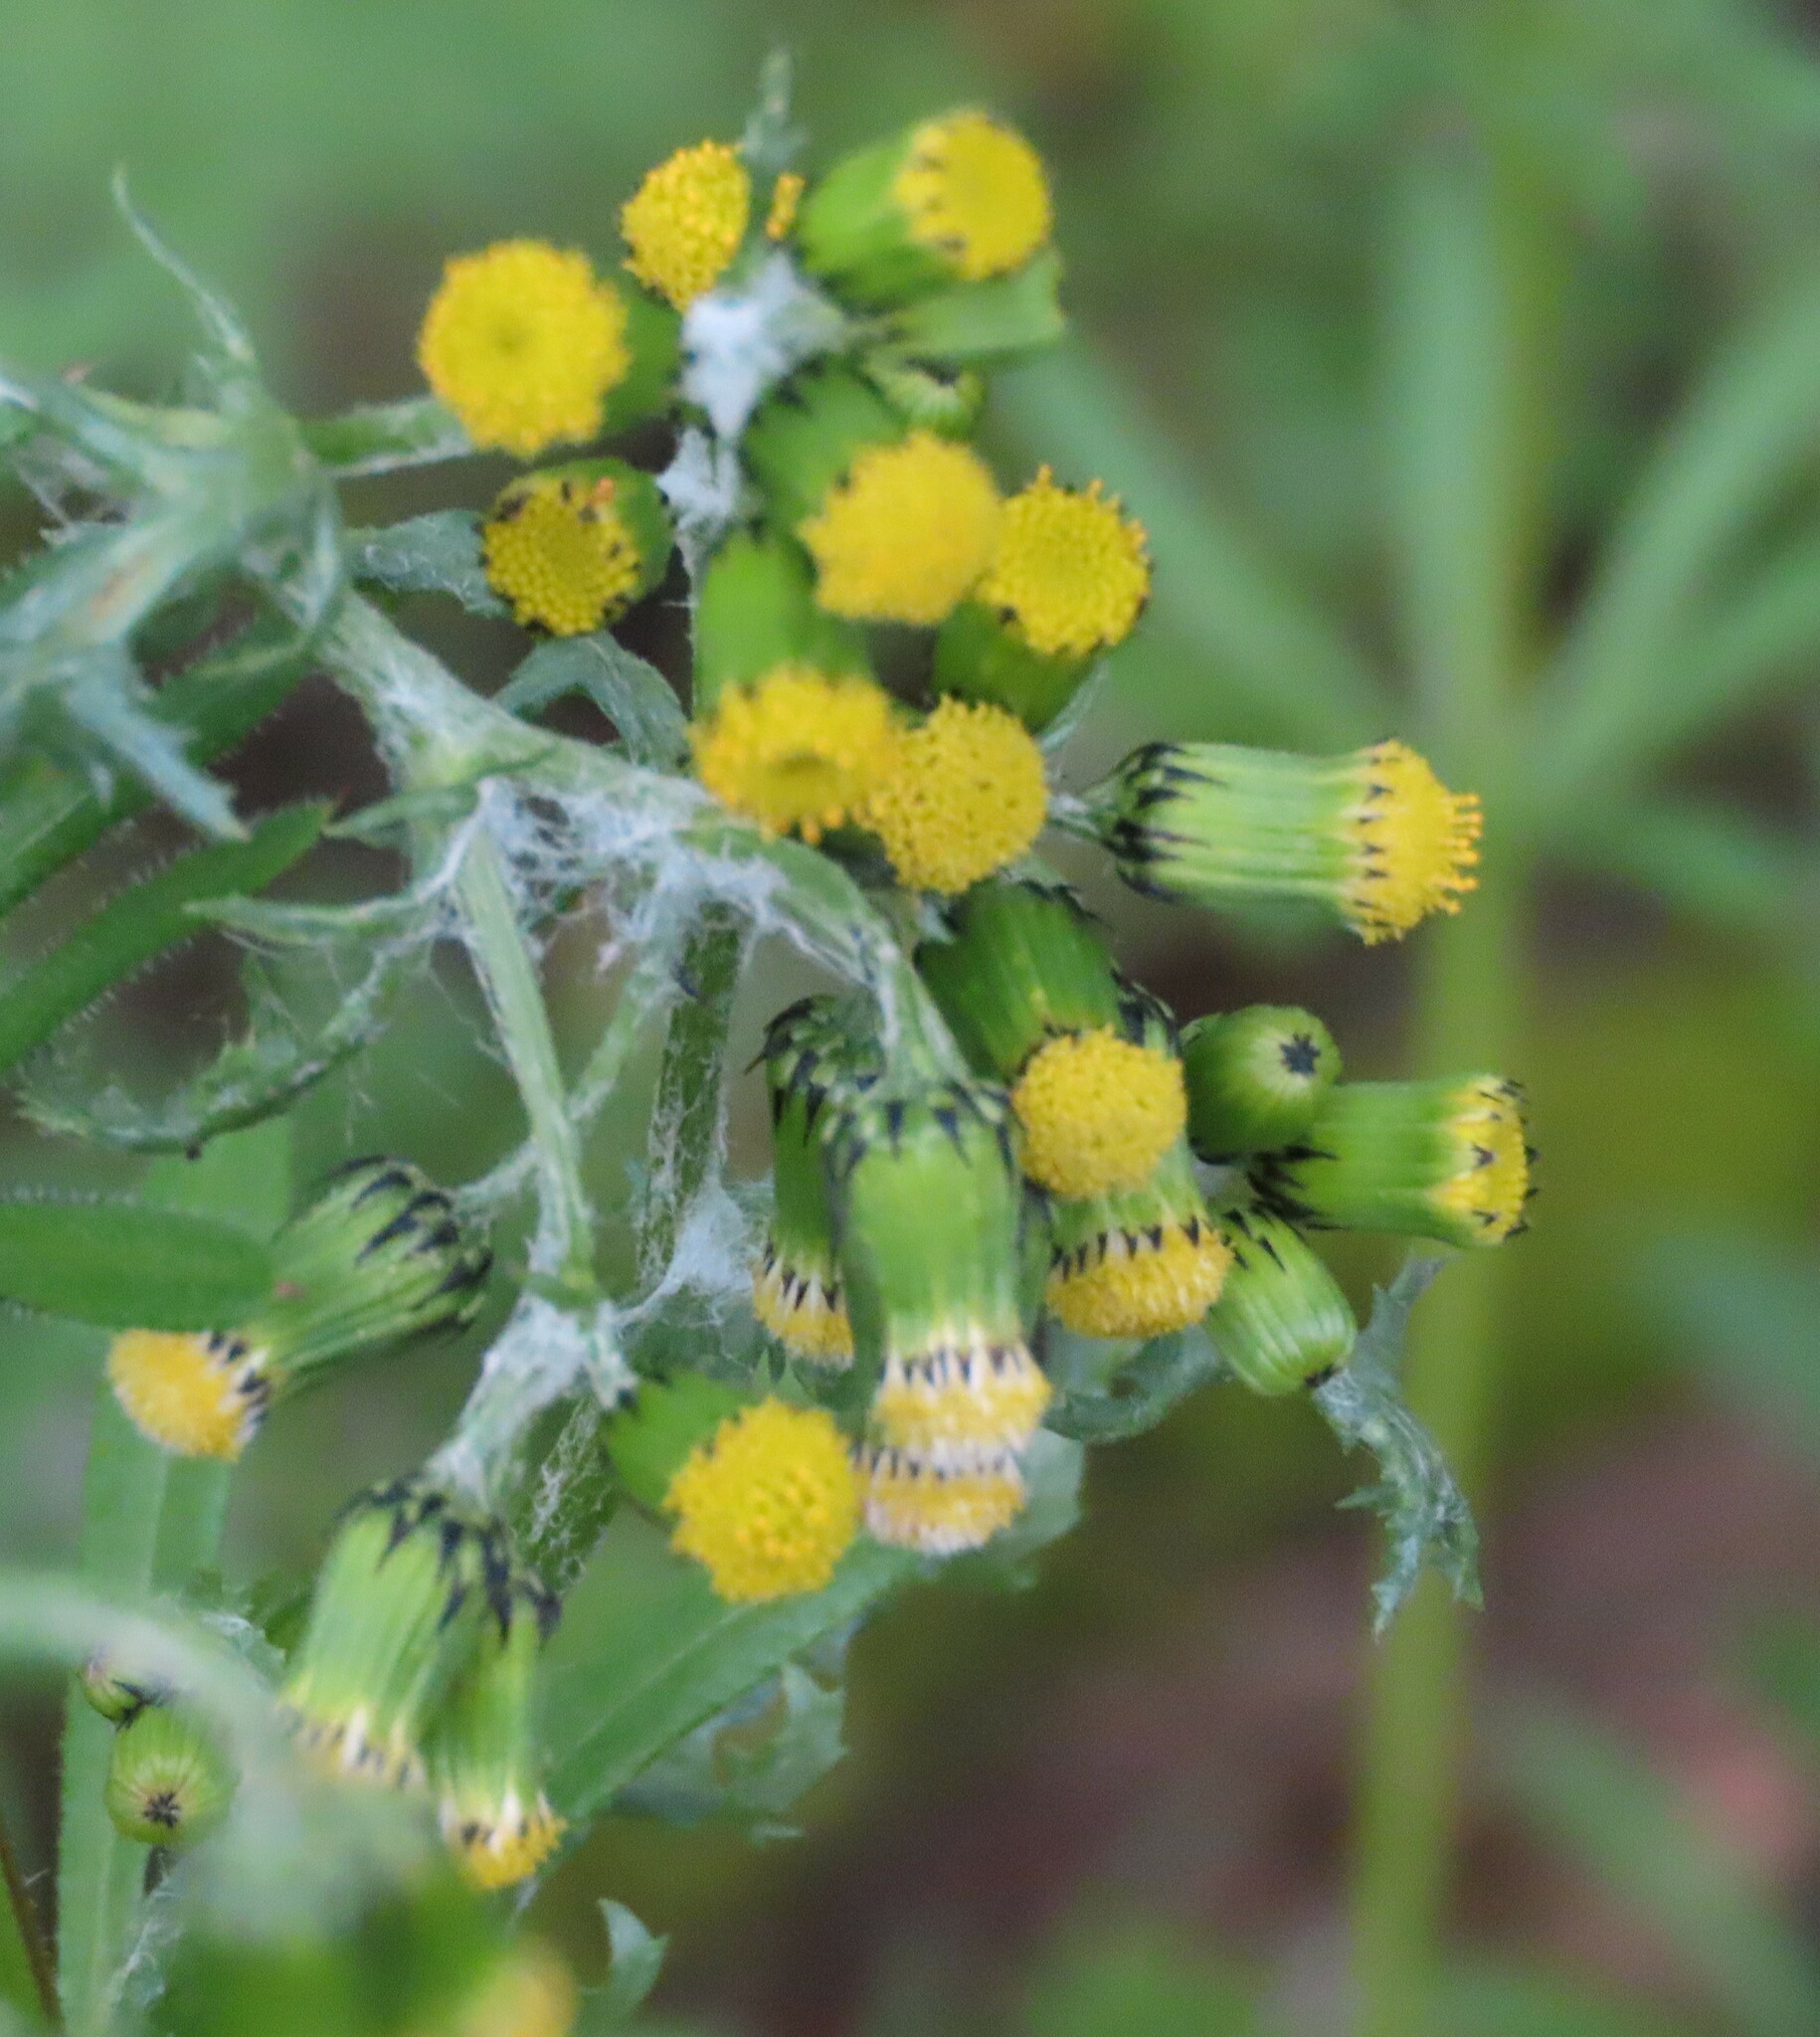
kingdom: Plantae
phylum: Tracheophyta
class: Magnoliopsida
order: Asterales
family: Asteraceae
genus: Senecio
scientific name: Senecio vulgaris
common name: Old-man-in-the-spring
